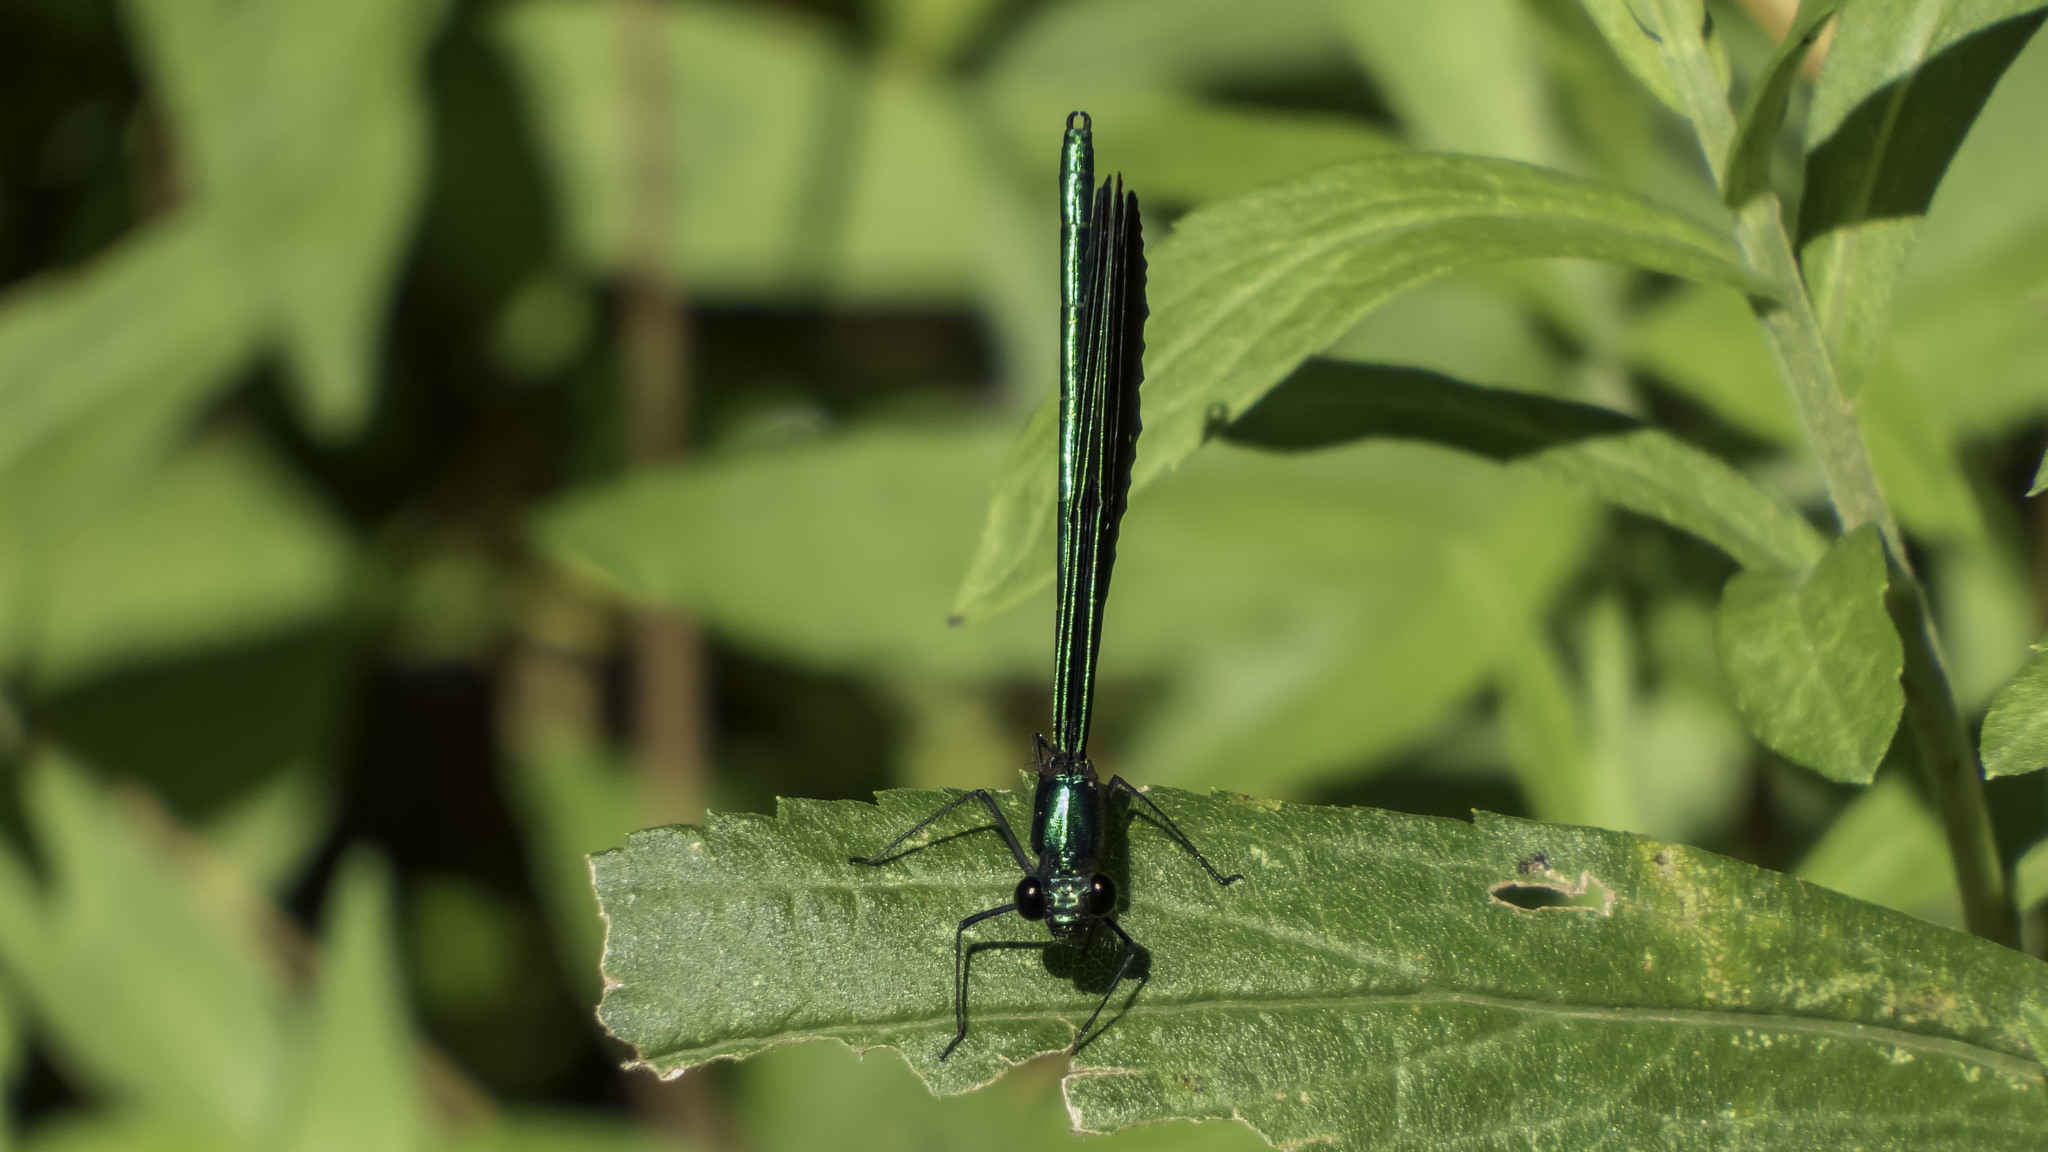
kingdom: Animalia
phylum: Arthropoda
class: Insecta
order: Odonata
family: Calopterygidae
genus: Calopteryx
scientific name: Calopteryx maculata
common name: Ebony jewelwing
